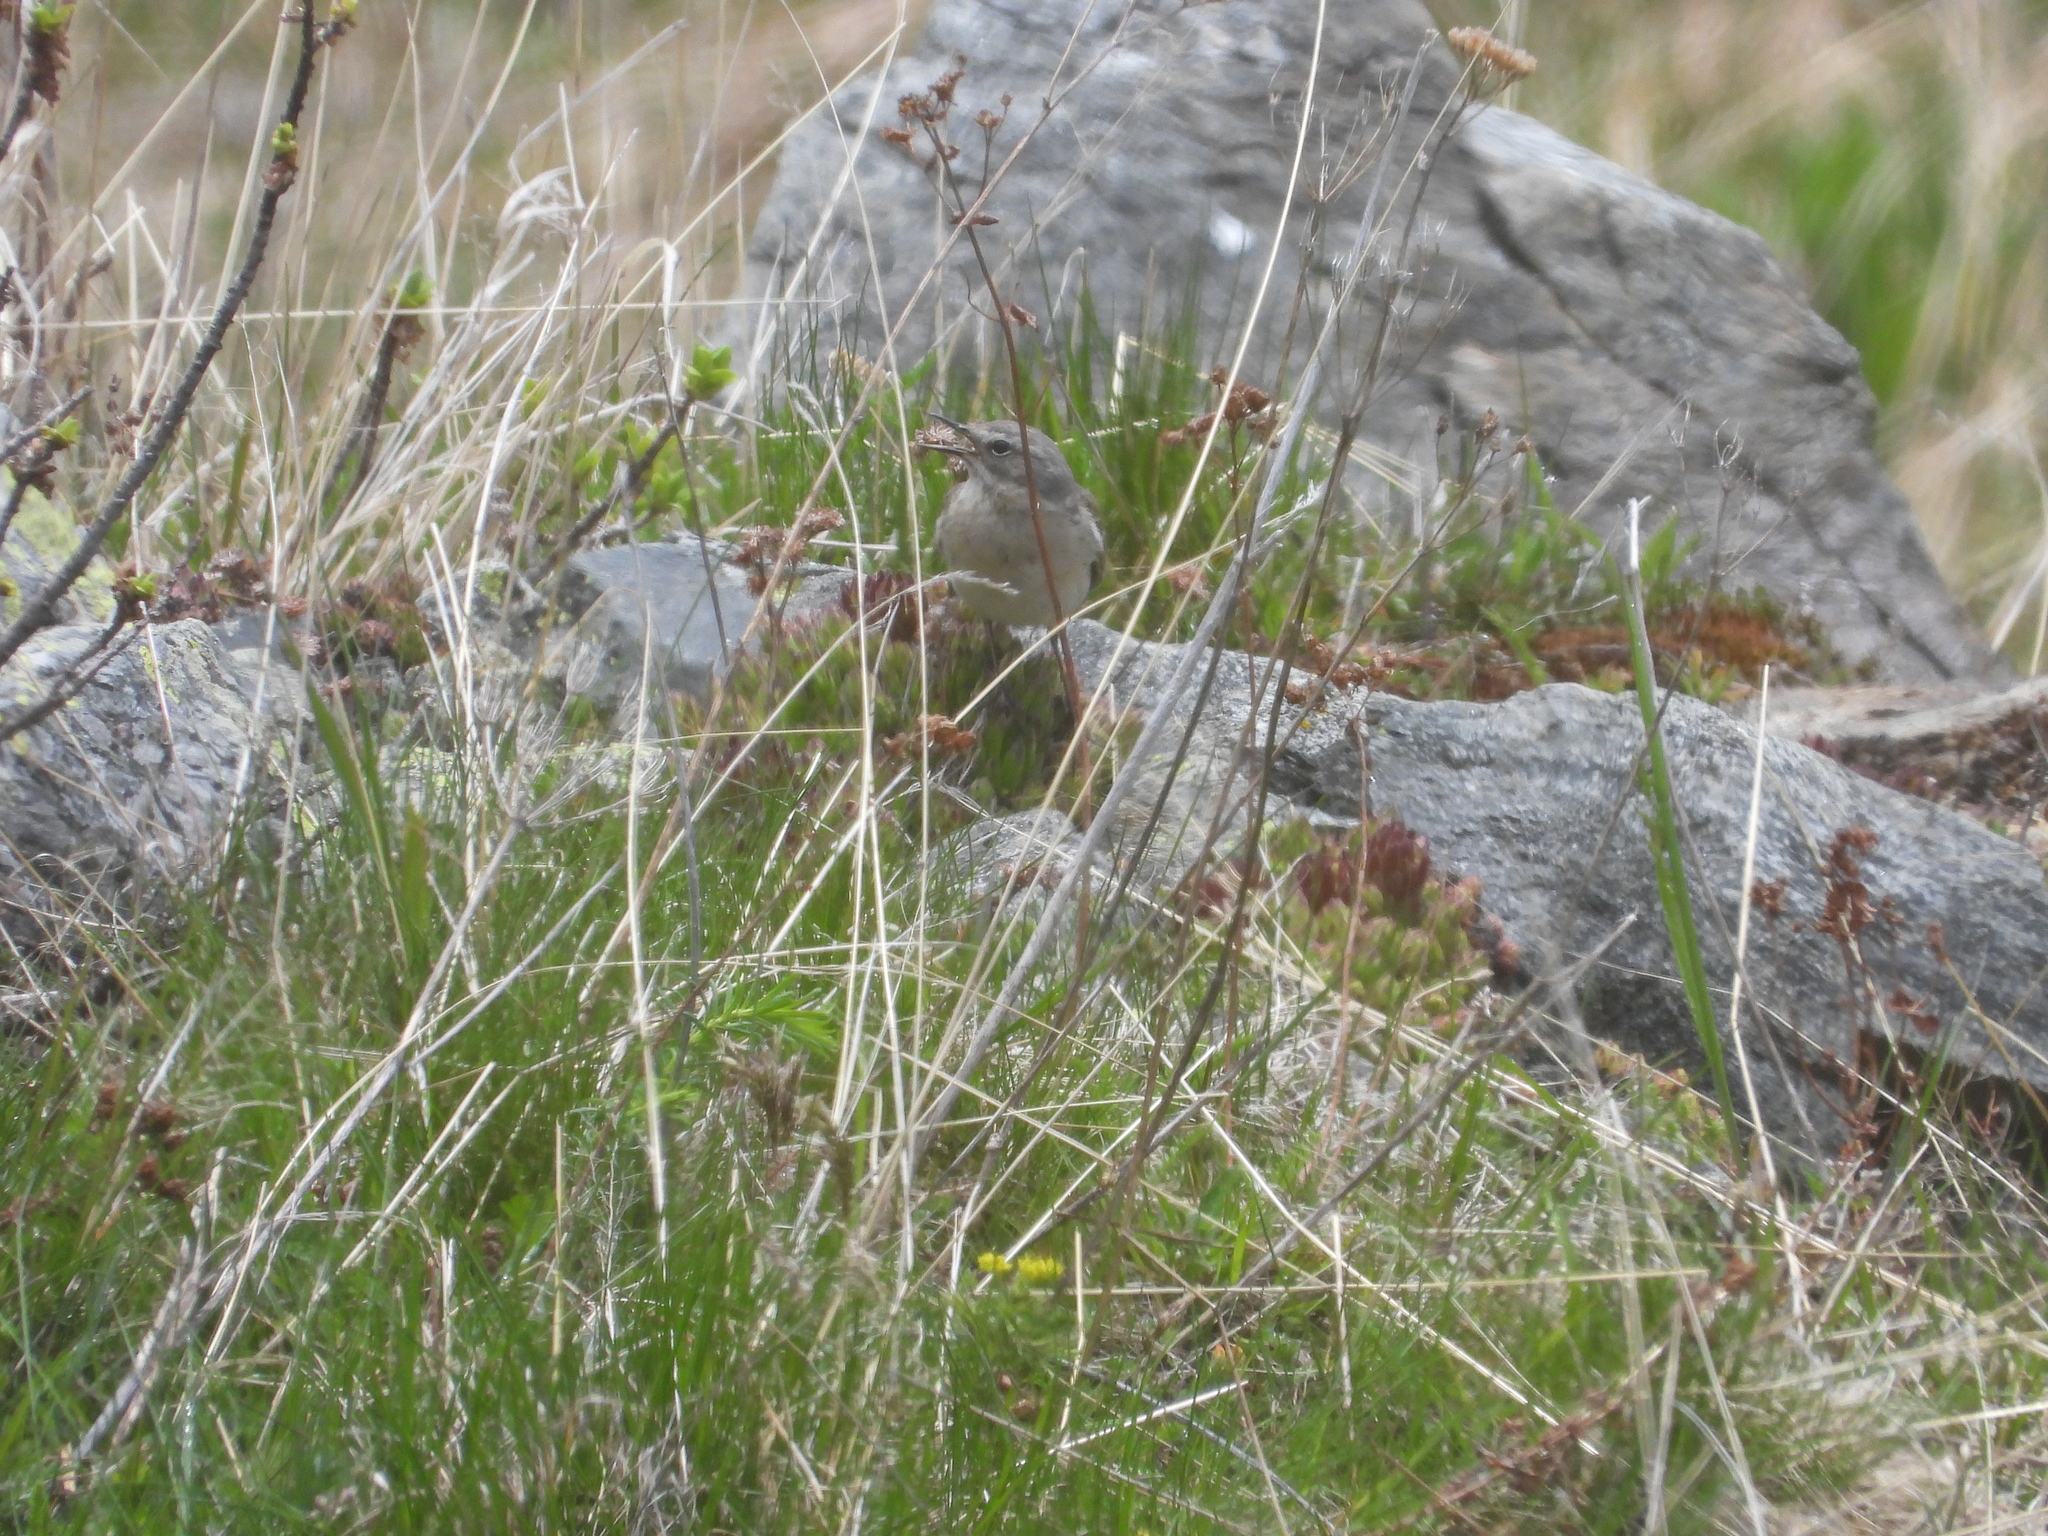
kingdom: Animalia
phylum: Chordata
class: Aves
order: Passeriformes
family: Motacillidae
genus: Anthus
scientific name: Anthus spinoletta
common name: Water pipit
